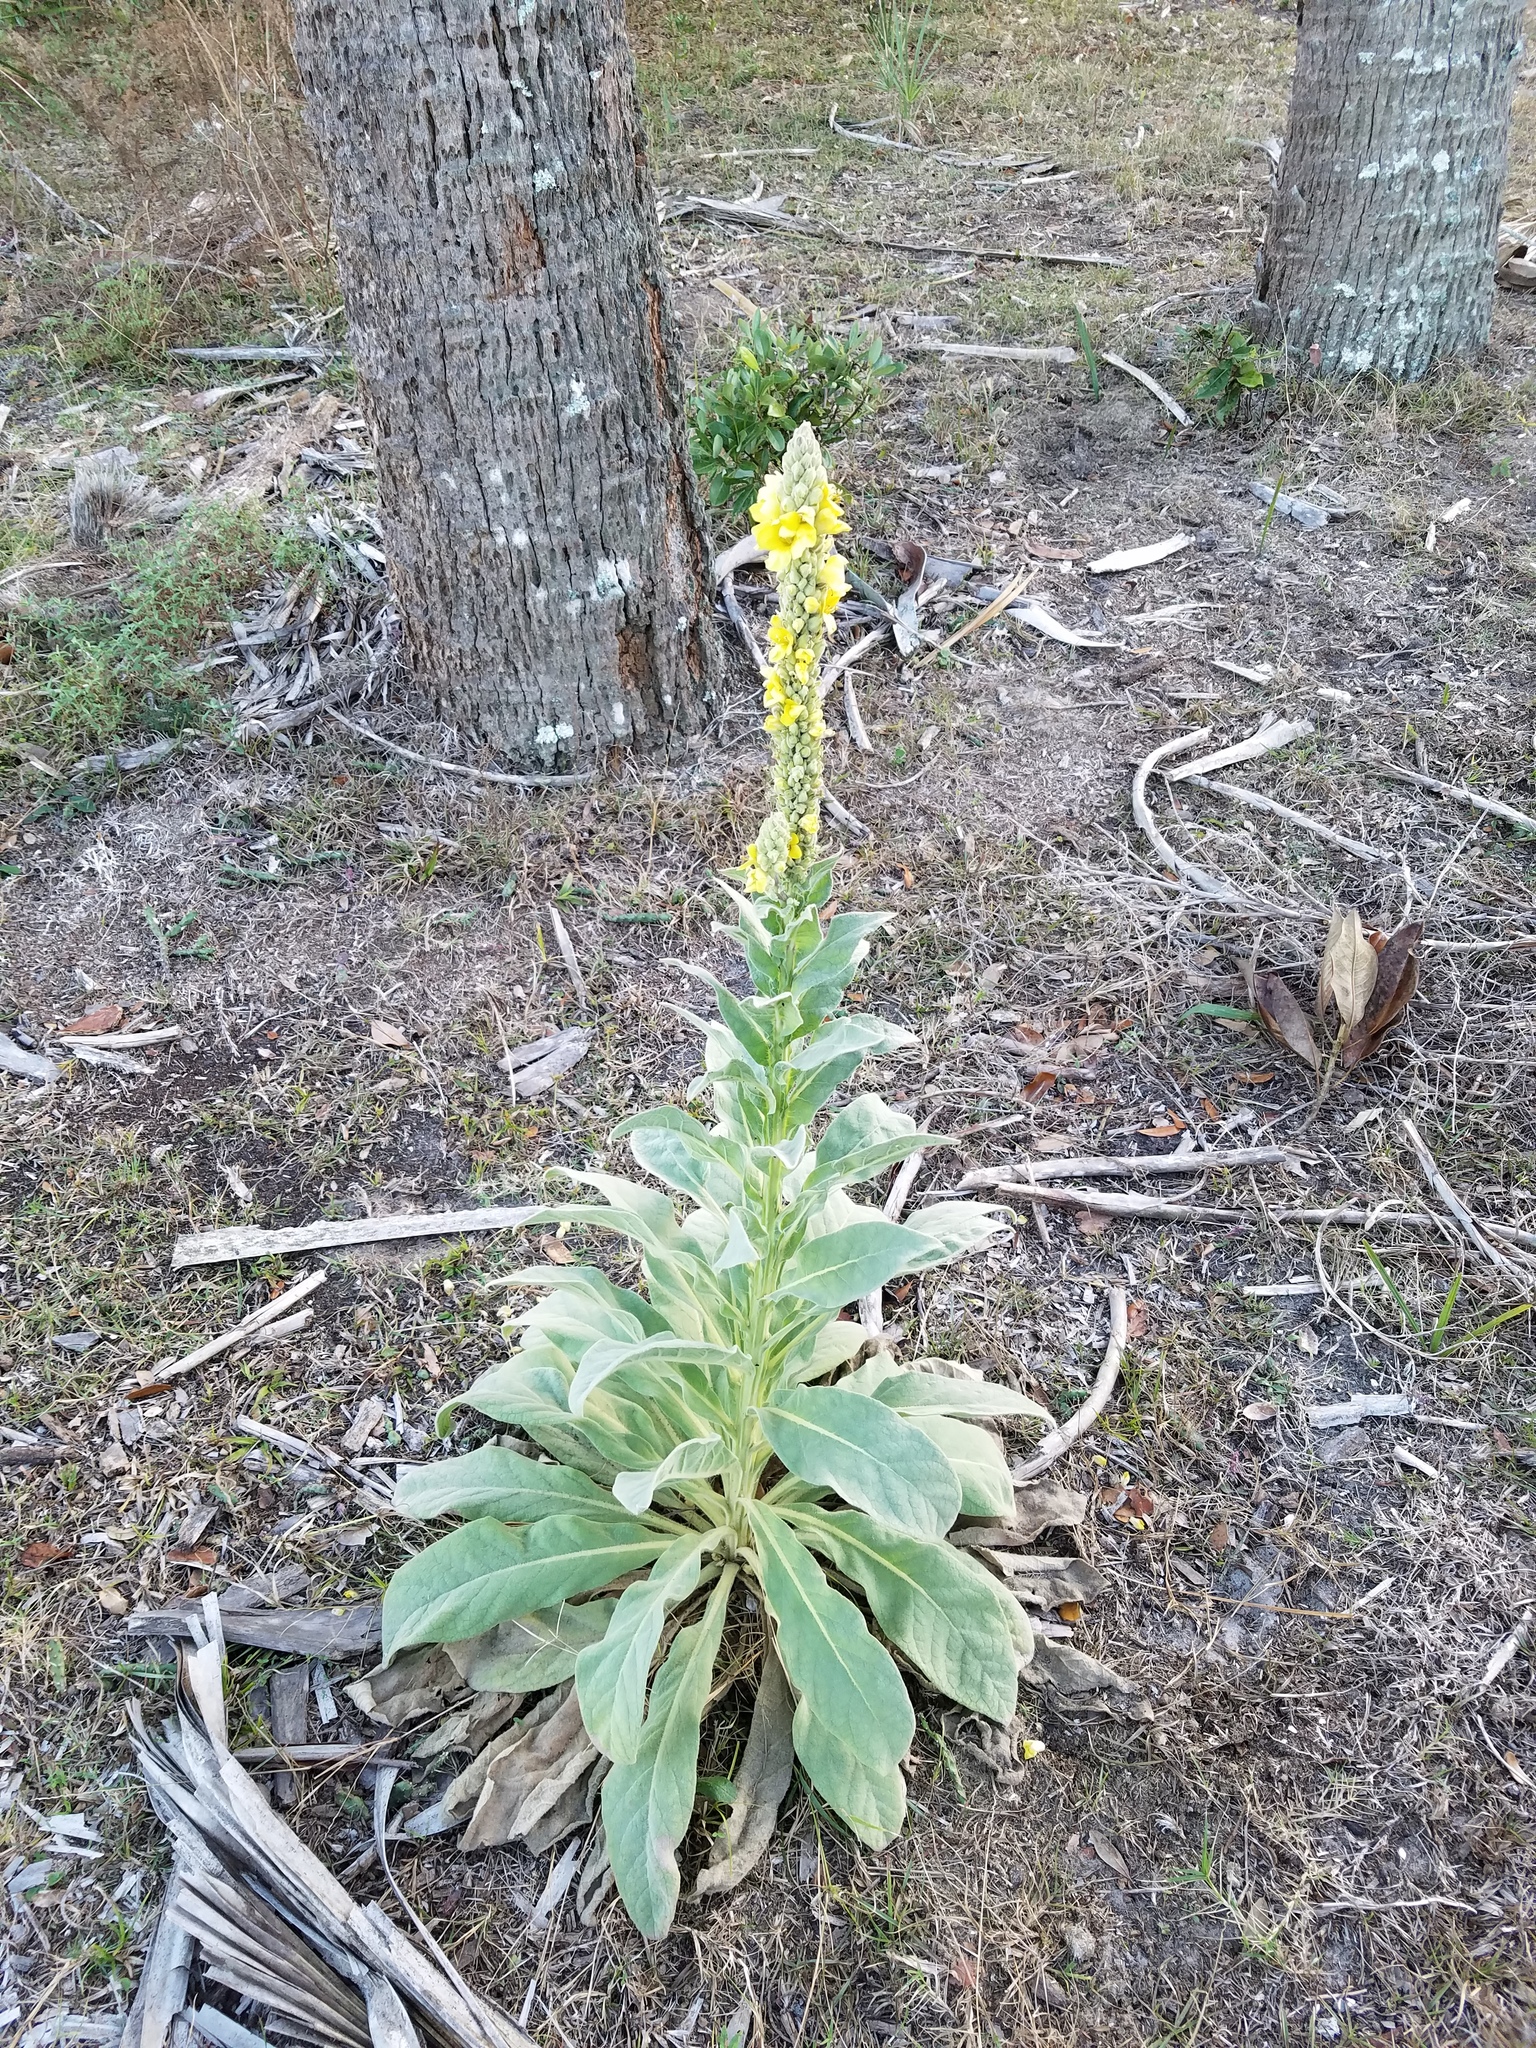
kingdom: Plantae
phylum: Tracheophyta
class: Magnoliopsida
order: Lamiales
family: Scrophulariaceae
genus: Verbascum
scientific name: Verbascum thapsus
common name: Common mullein
